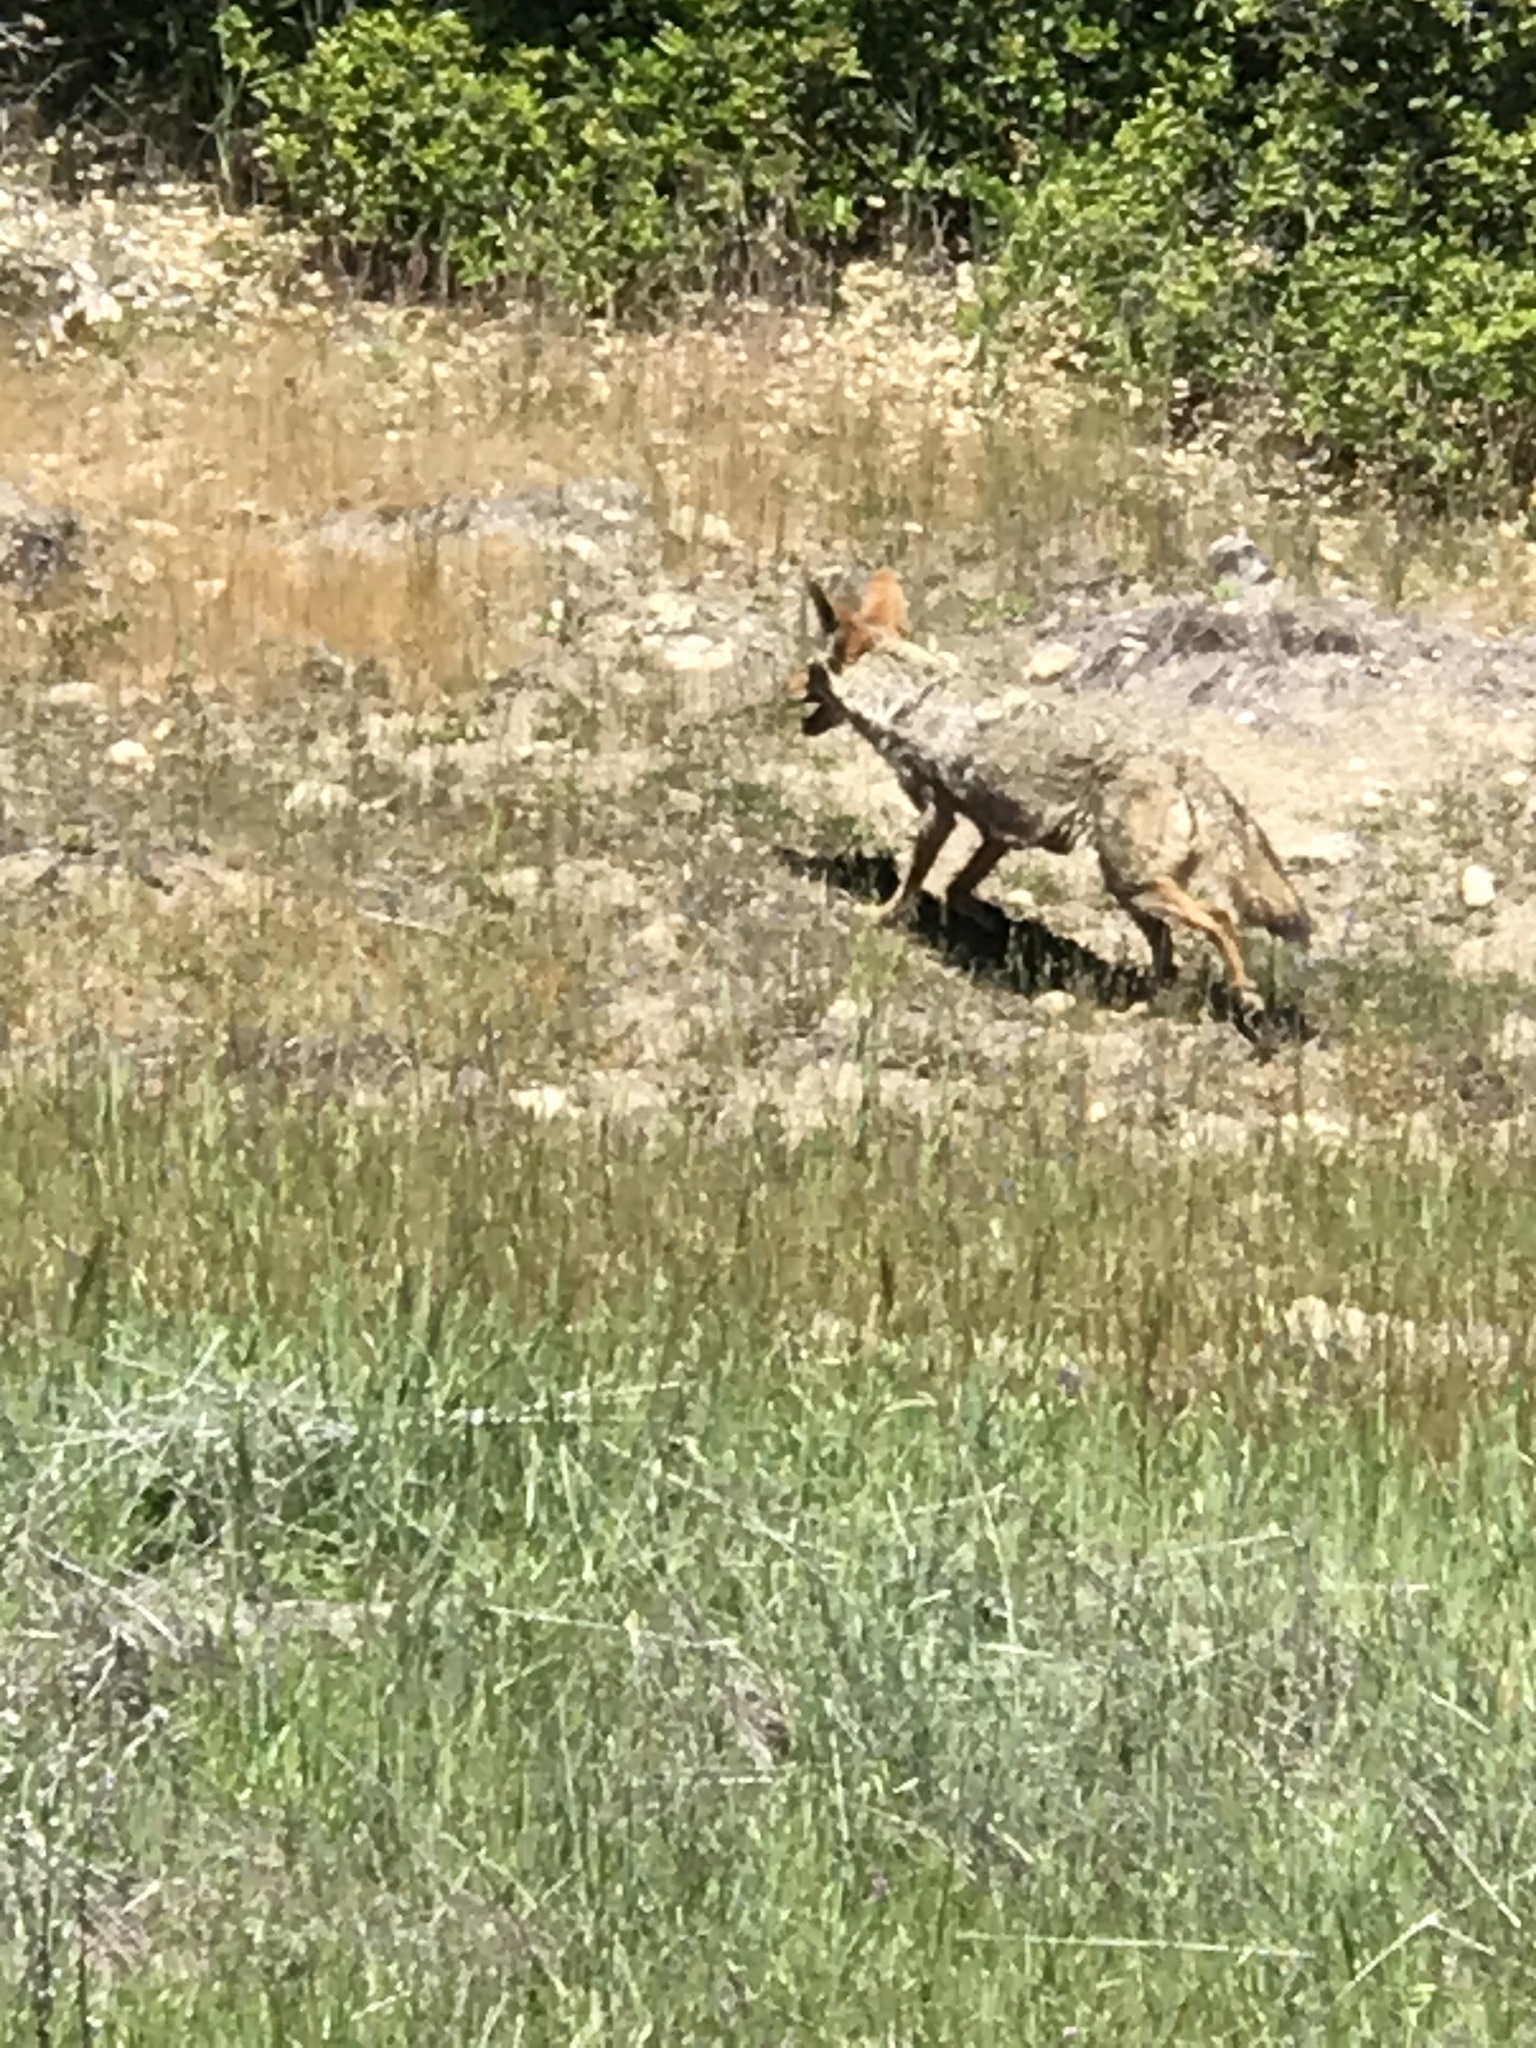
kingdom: Animalia
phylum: Chordata
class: Mammalia
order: Carnivora
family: Canidae
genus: Canis
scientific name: Canis latrans
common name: Coyote
